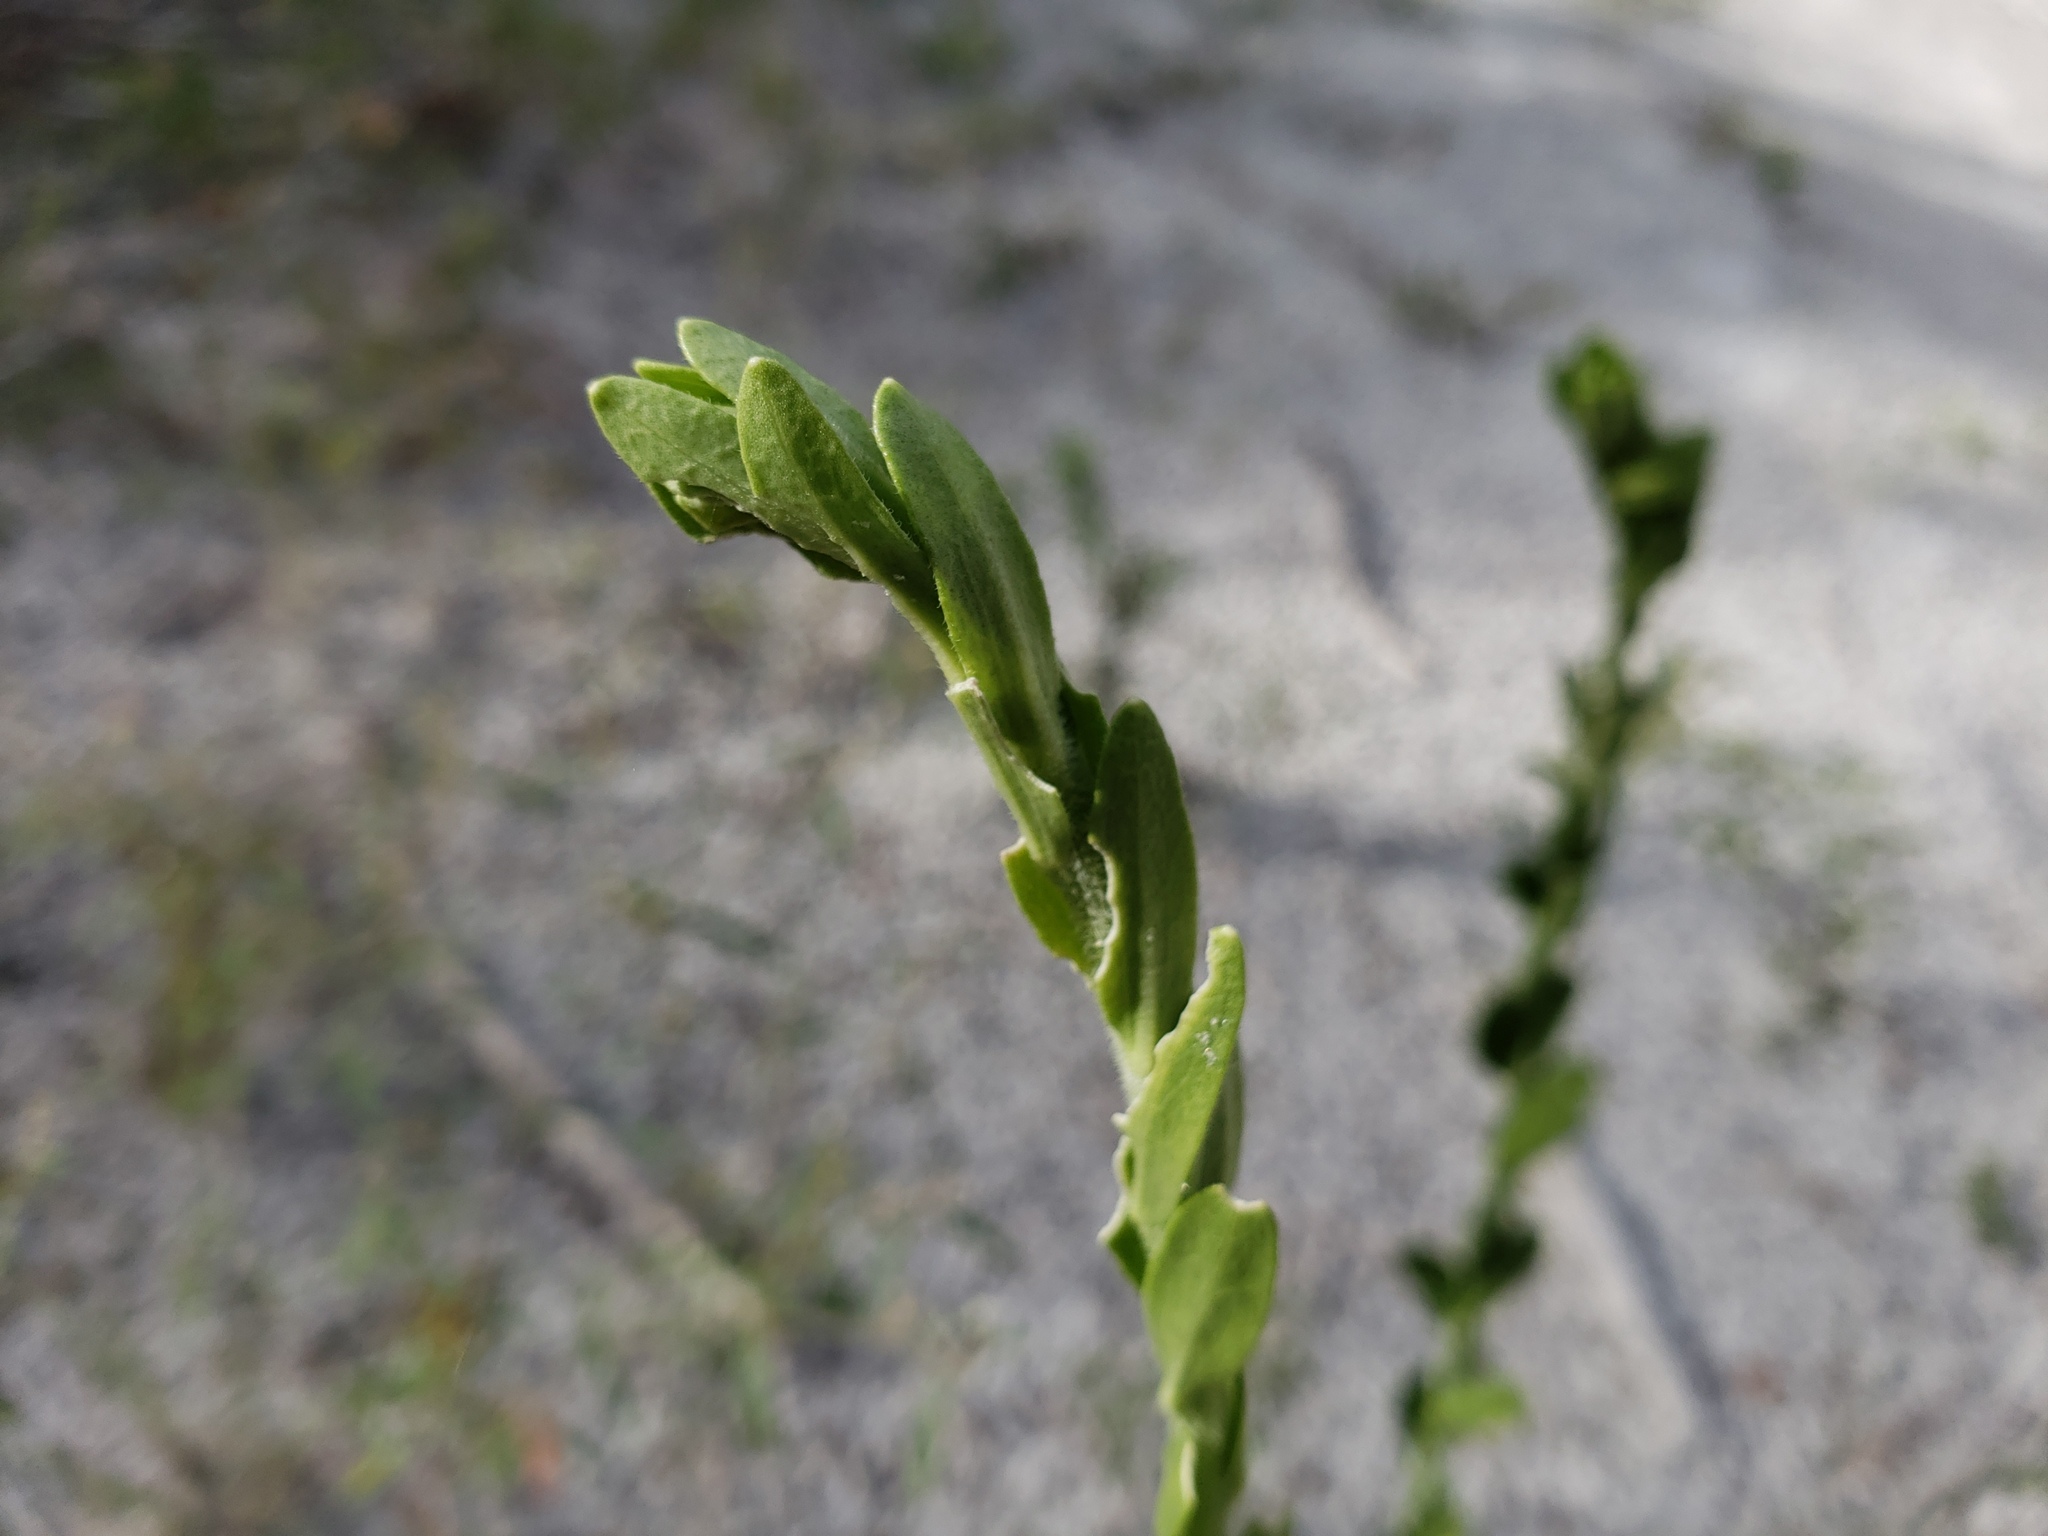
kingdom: Plantae
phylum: Tracheophyta
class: Magnoliopsida
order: Asterales
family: Asteraceae
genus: Carphephorus
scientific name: Carphephorus corymbosus
